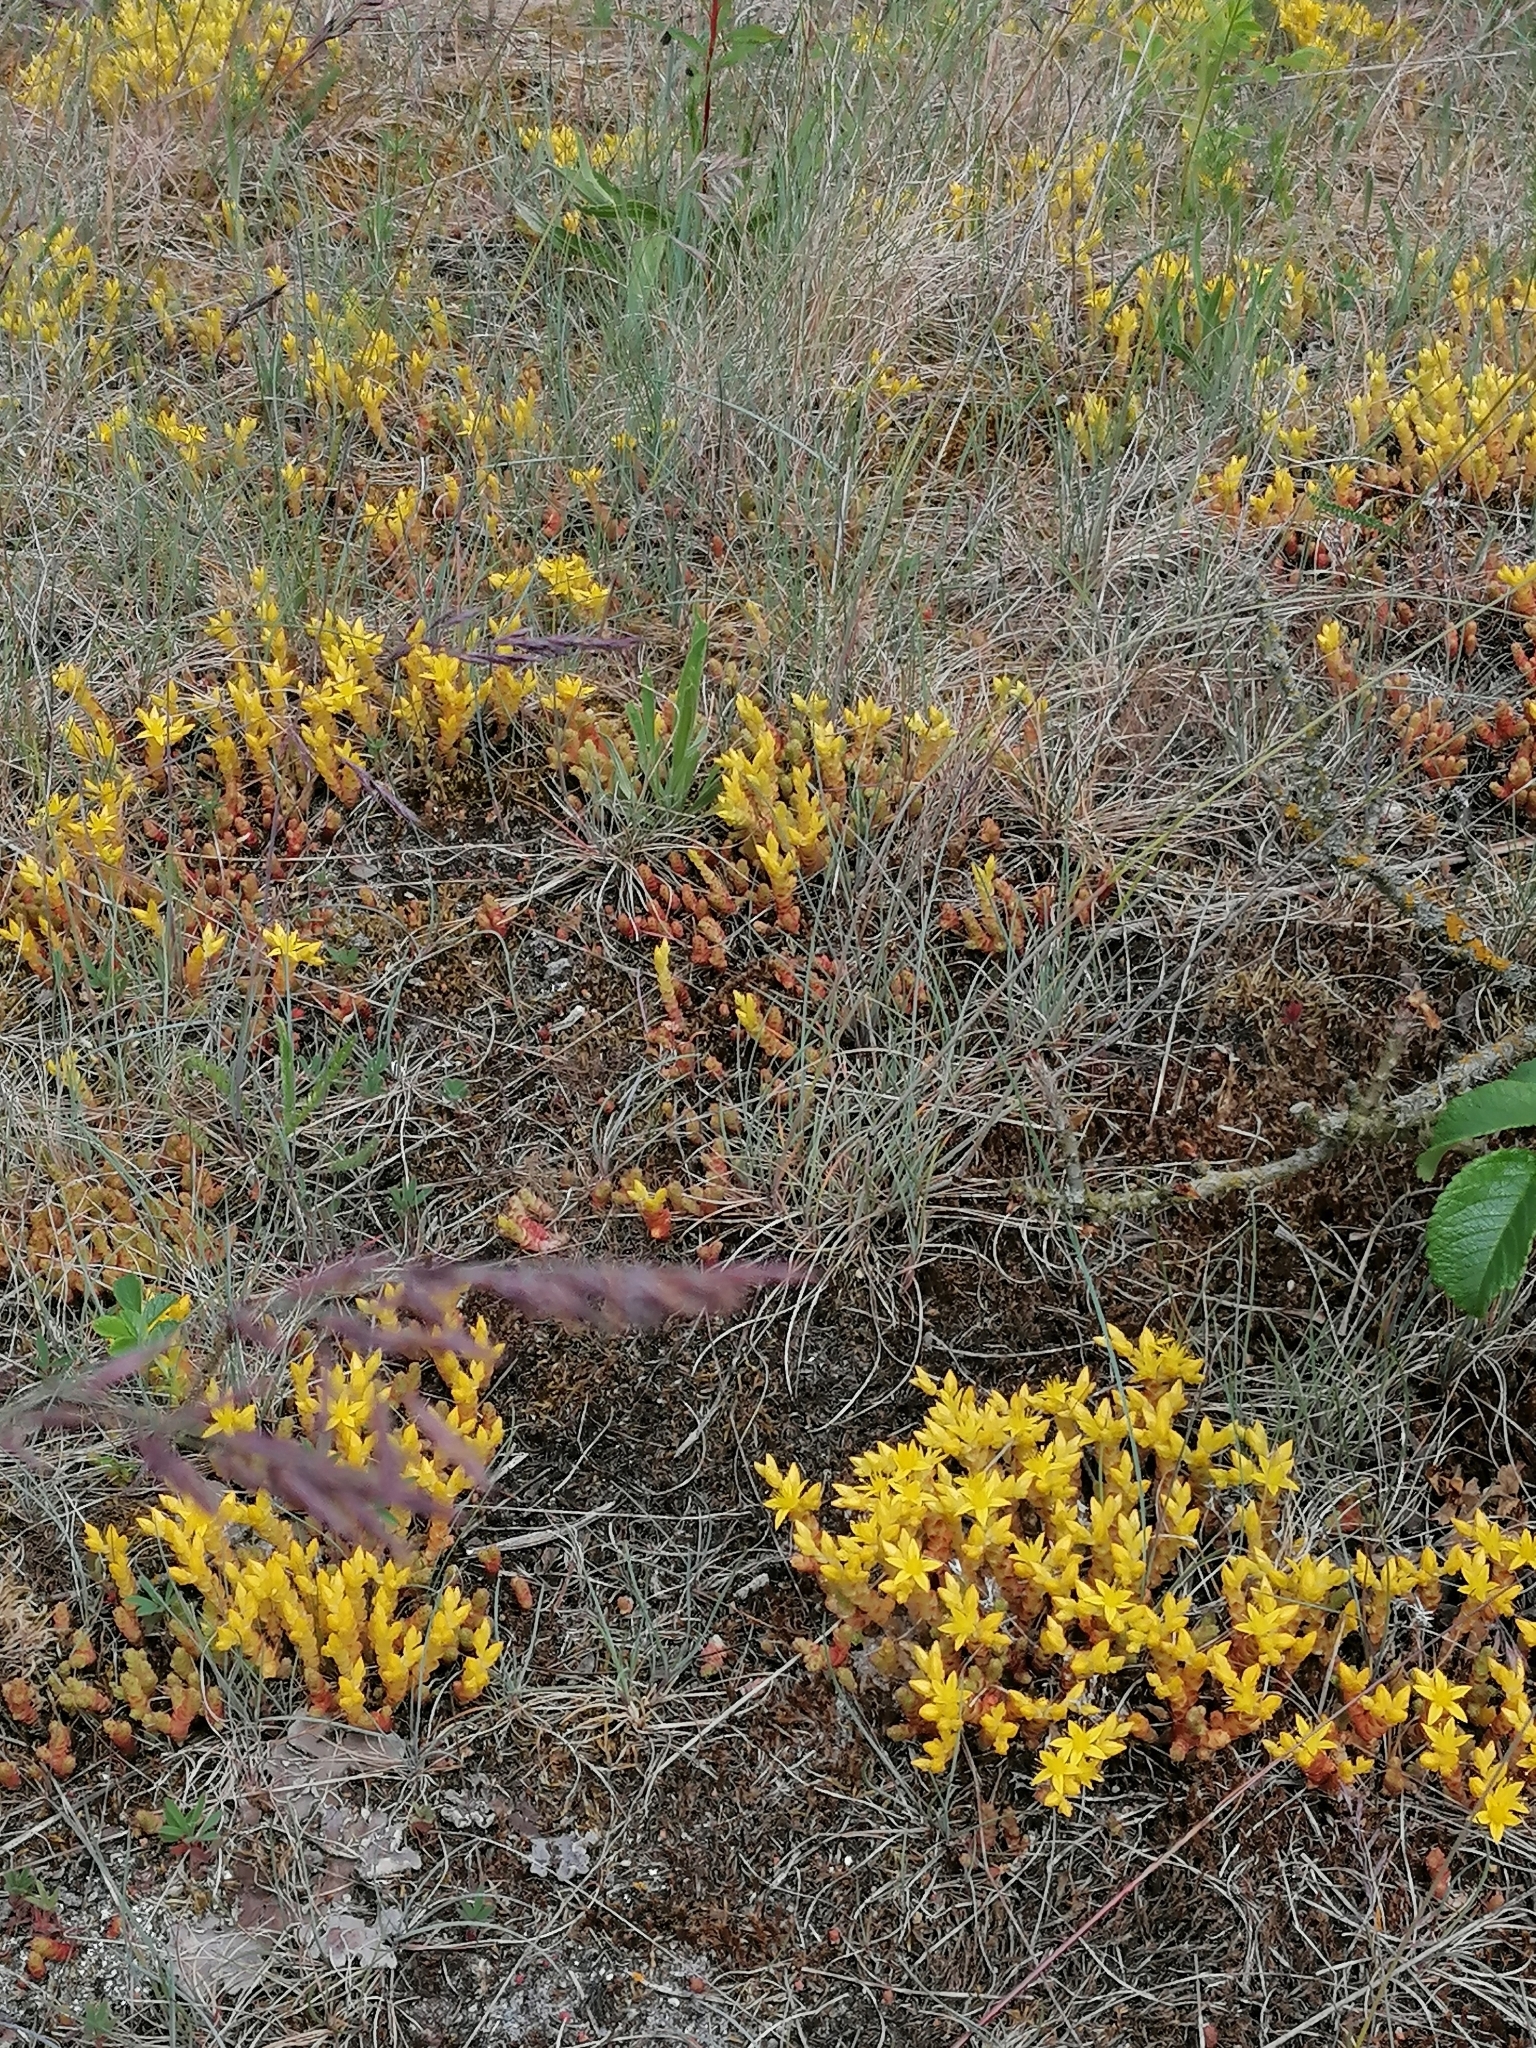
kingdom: Plantae
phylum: Tracheophyta
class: Magnoliopsida
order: Saxifragales
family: Crassulaceae
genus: Sedum
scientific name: Sedum acre
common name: Biting stonecrop
